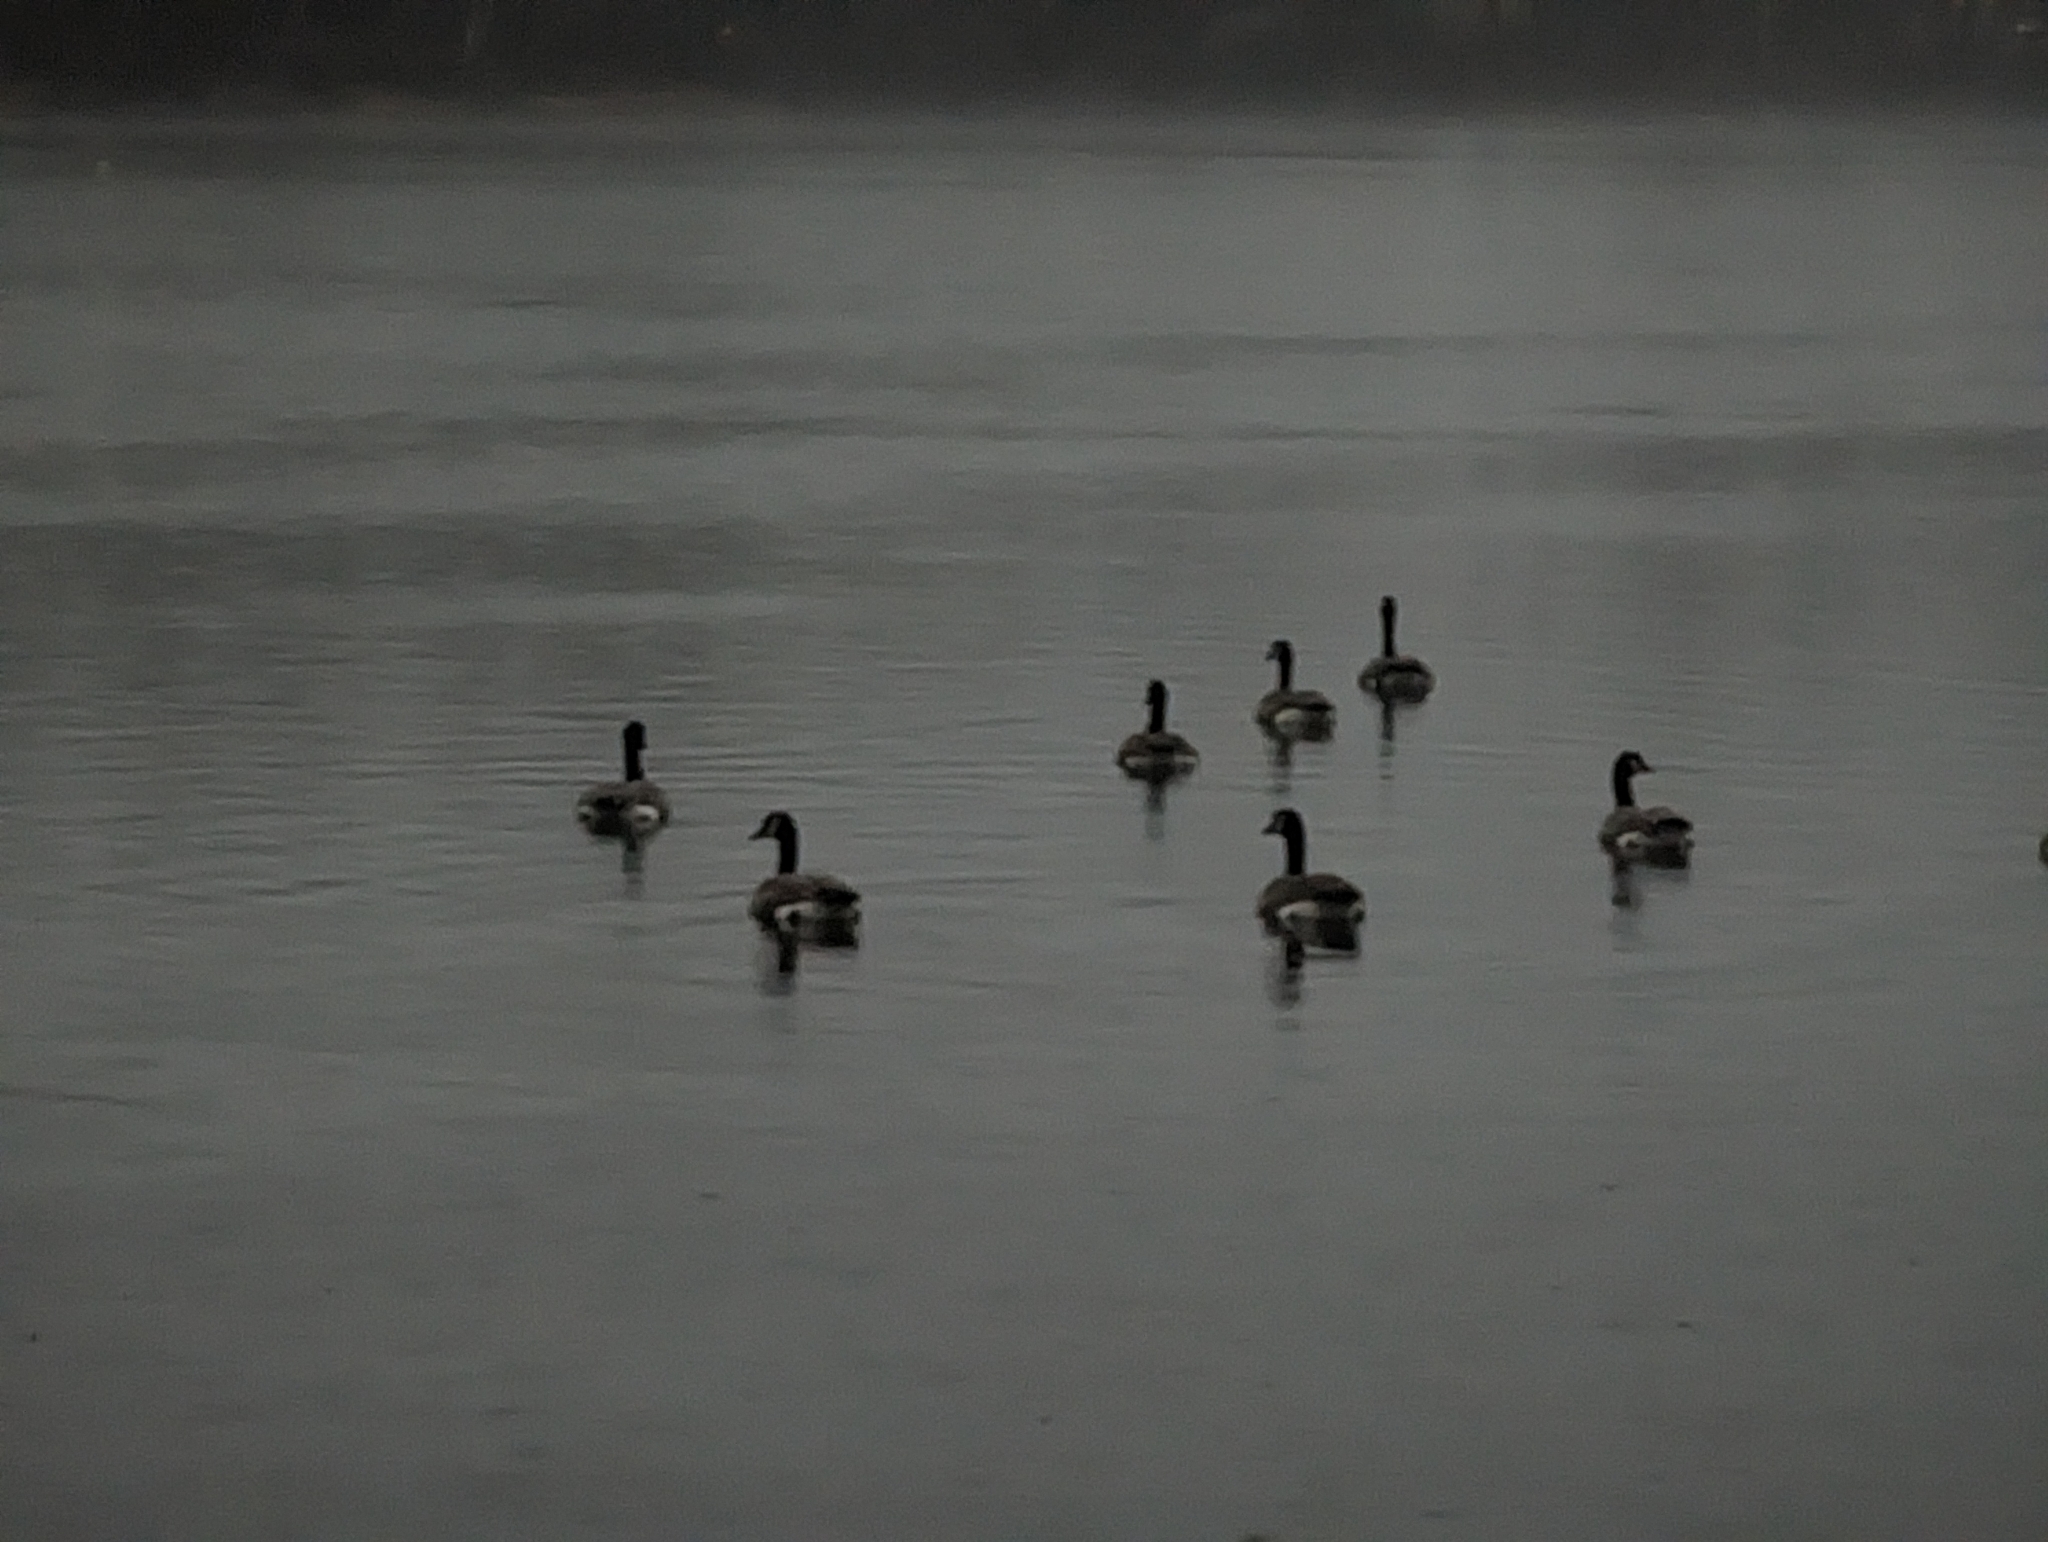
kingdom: Animalia
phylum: Chordata
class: Aves
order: Anseriformes
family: Anatidae
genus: Branta
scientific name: Branta canadensis
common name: Canada goose
